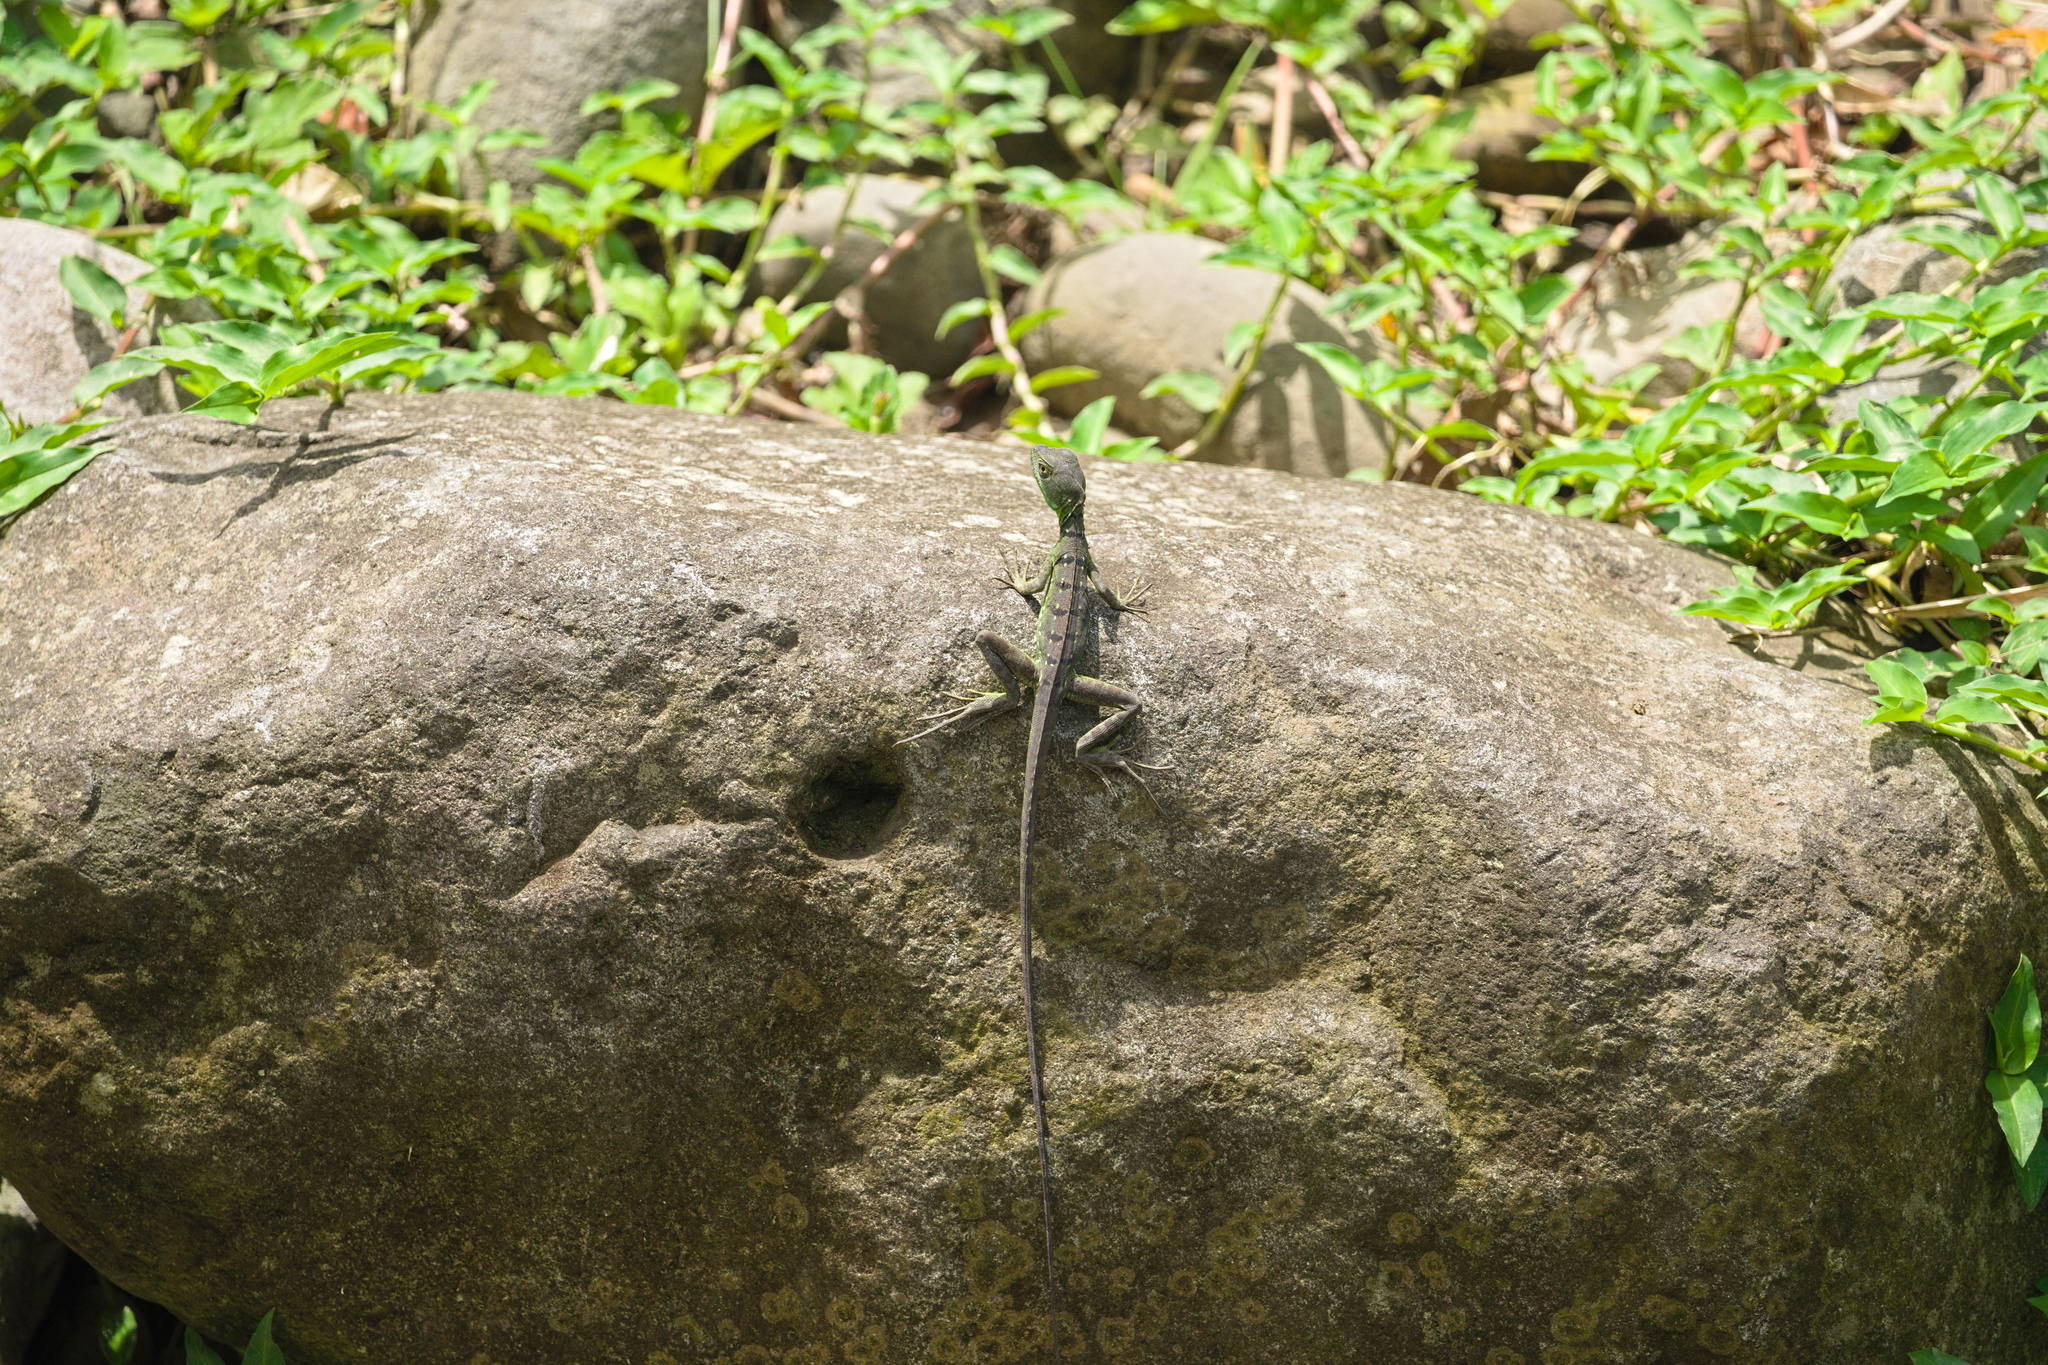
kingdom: Animalia
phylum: Chordata
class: Squamata
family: Corytophanidae
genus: Basiliscus
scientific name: Basiliscus plumifrons
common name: Green basilisk
